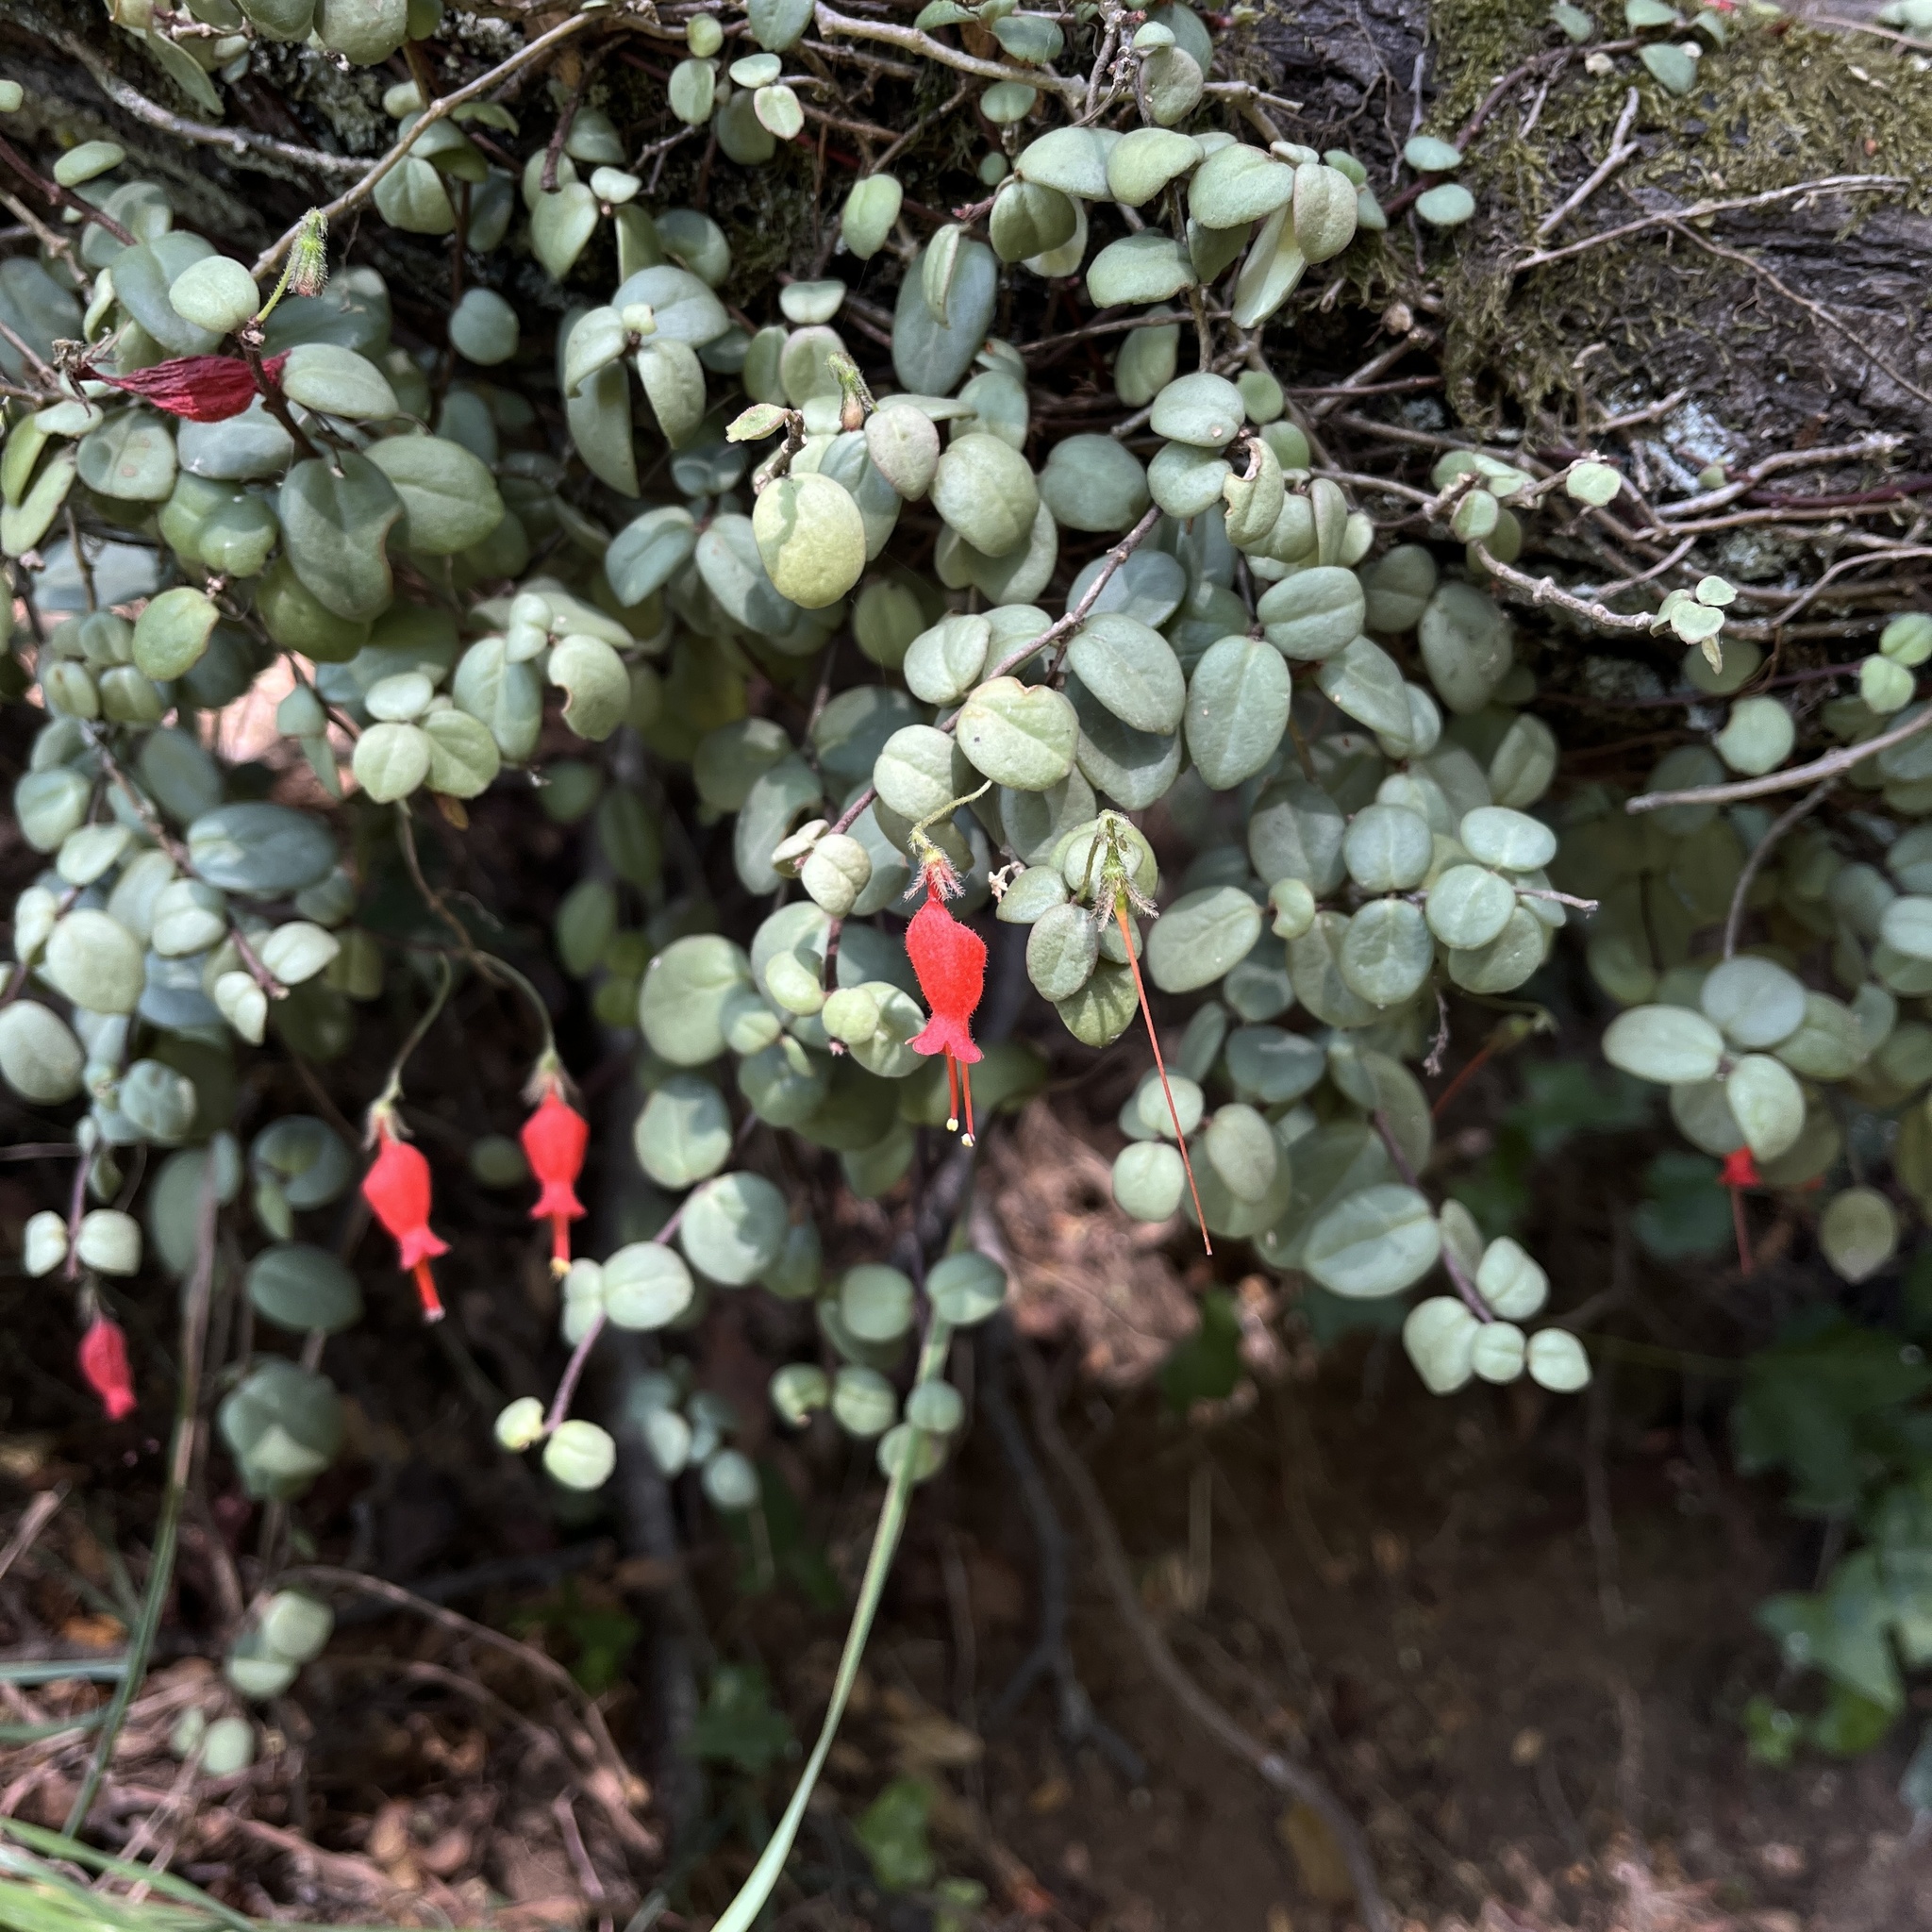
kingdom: Plantae
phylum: Tracheophyta
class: Magnoliopsida
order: Lamiales
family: Gesneriaceae
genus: Sarmienta
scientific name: Sarmienta scandens
